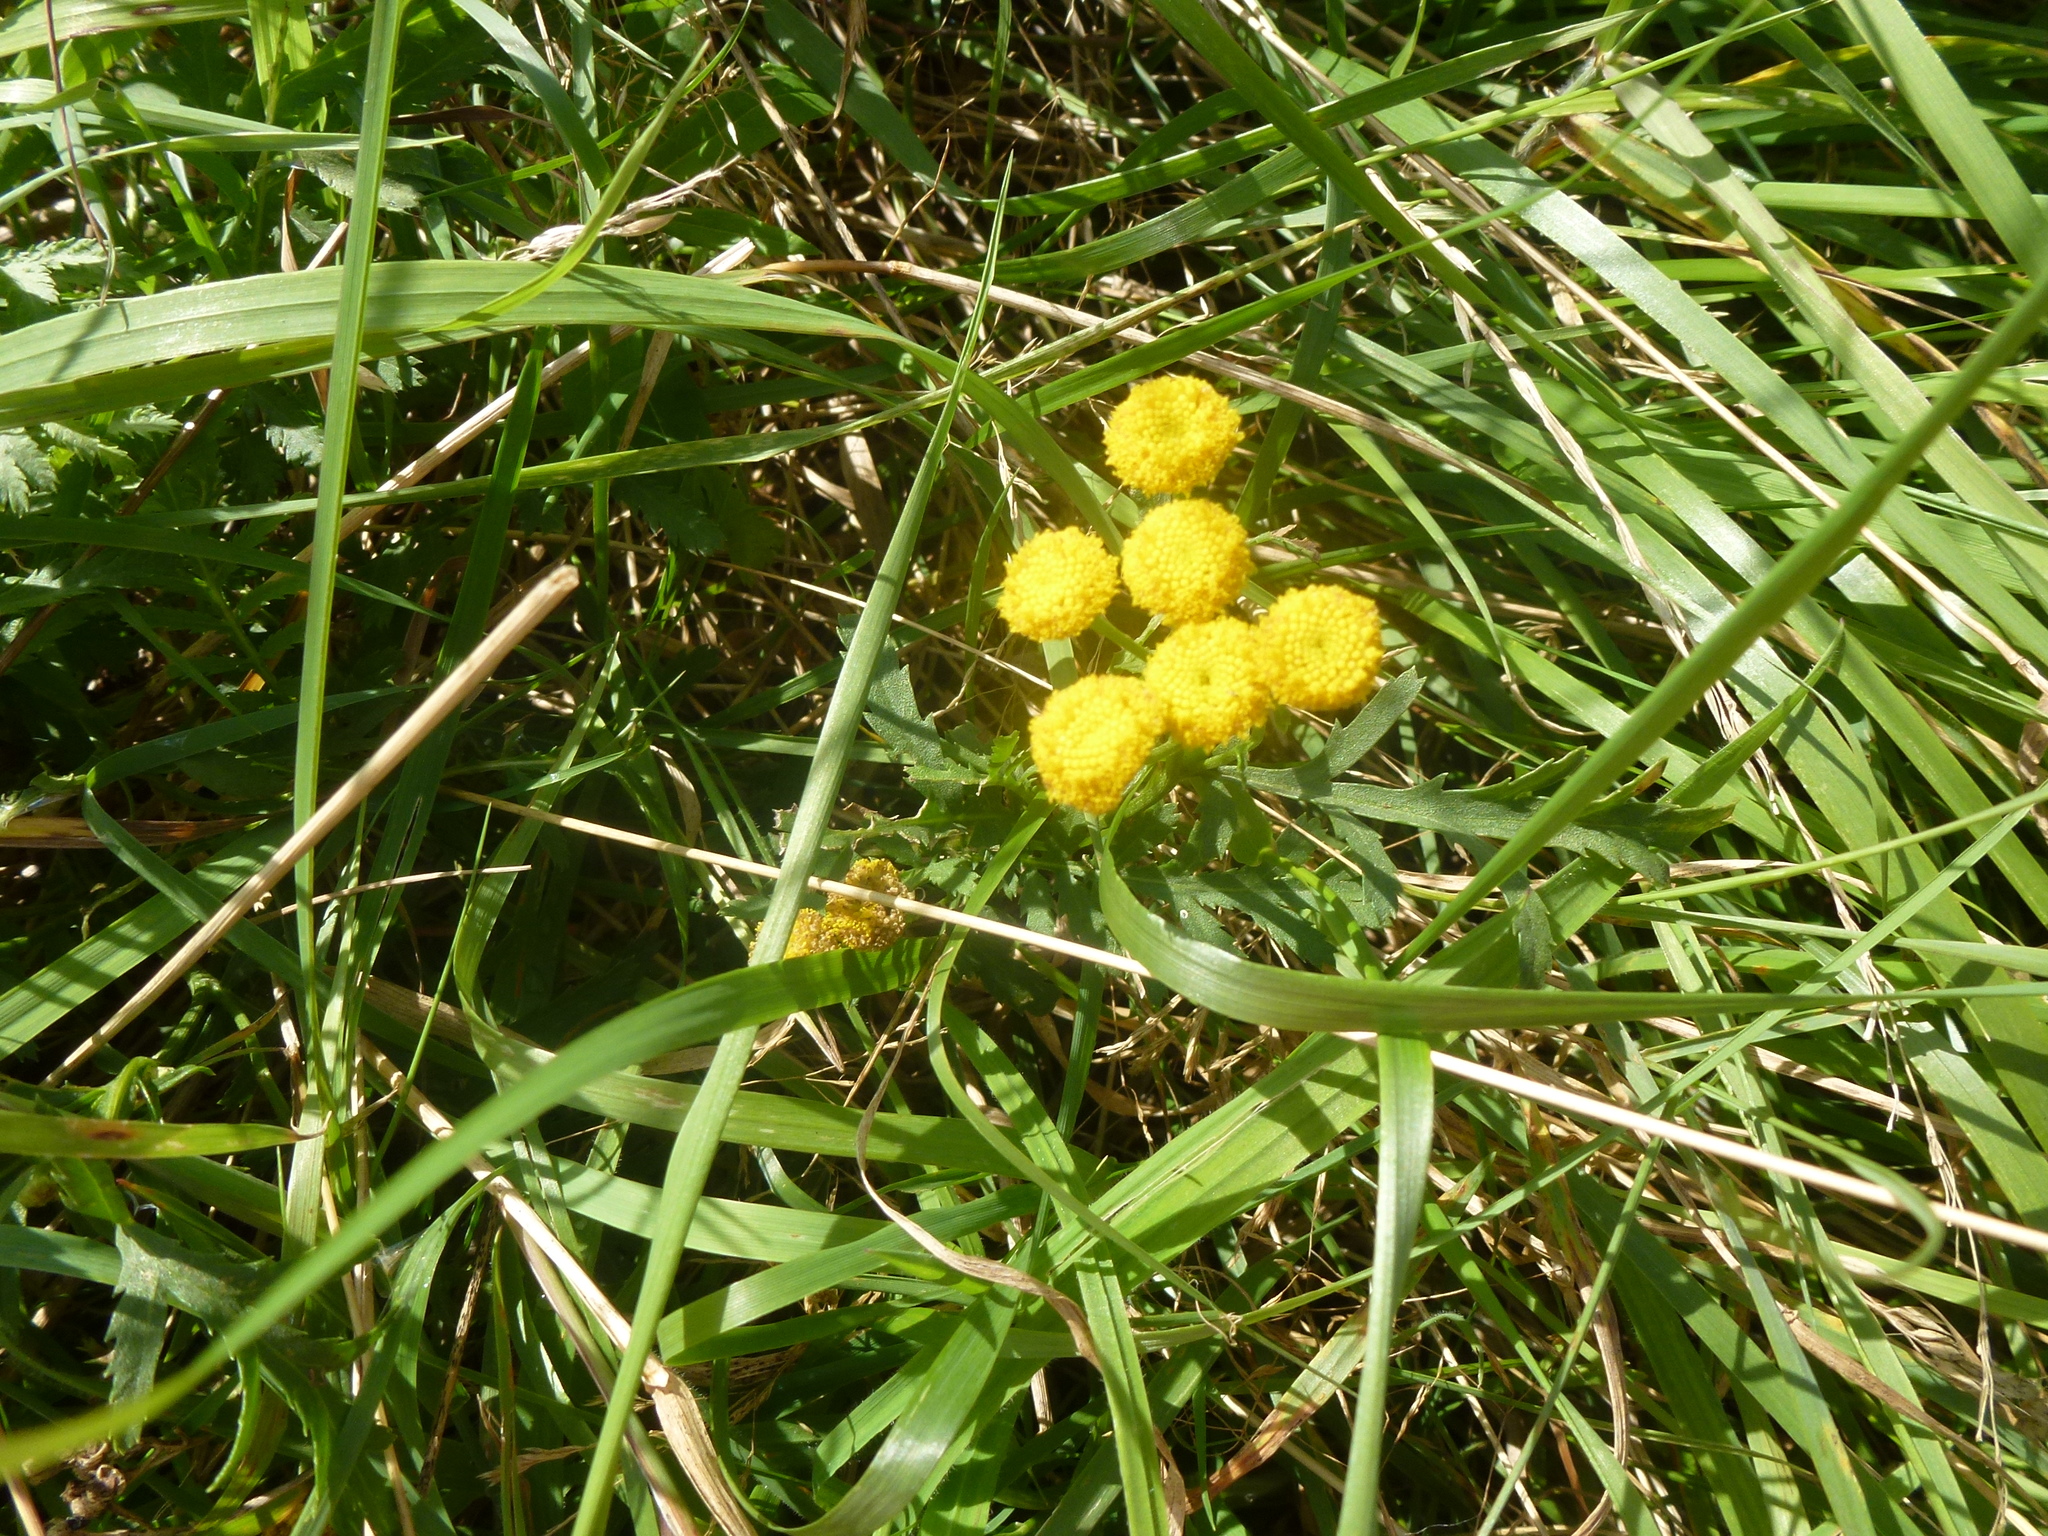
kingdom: Plantae
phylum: Tracheophyta
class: Magnoliopsida
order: Asterales
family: Asteraceae
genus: Tanacetum
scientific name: Tanacetum vulgare
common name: Common tansy
